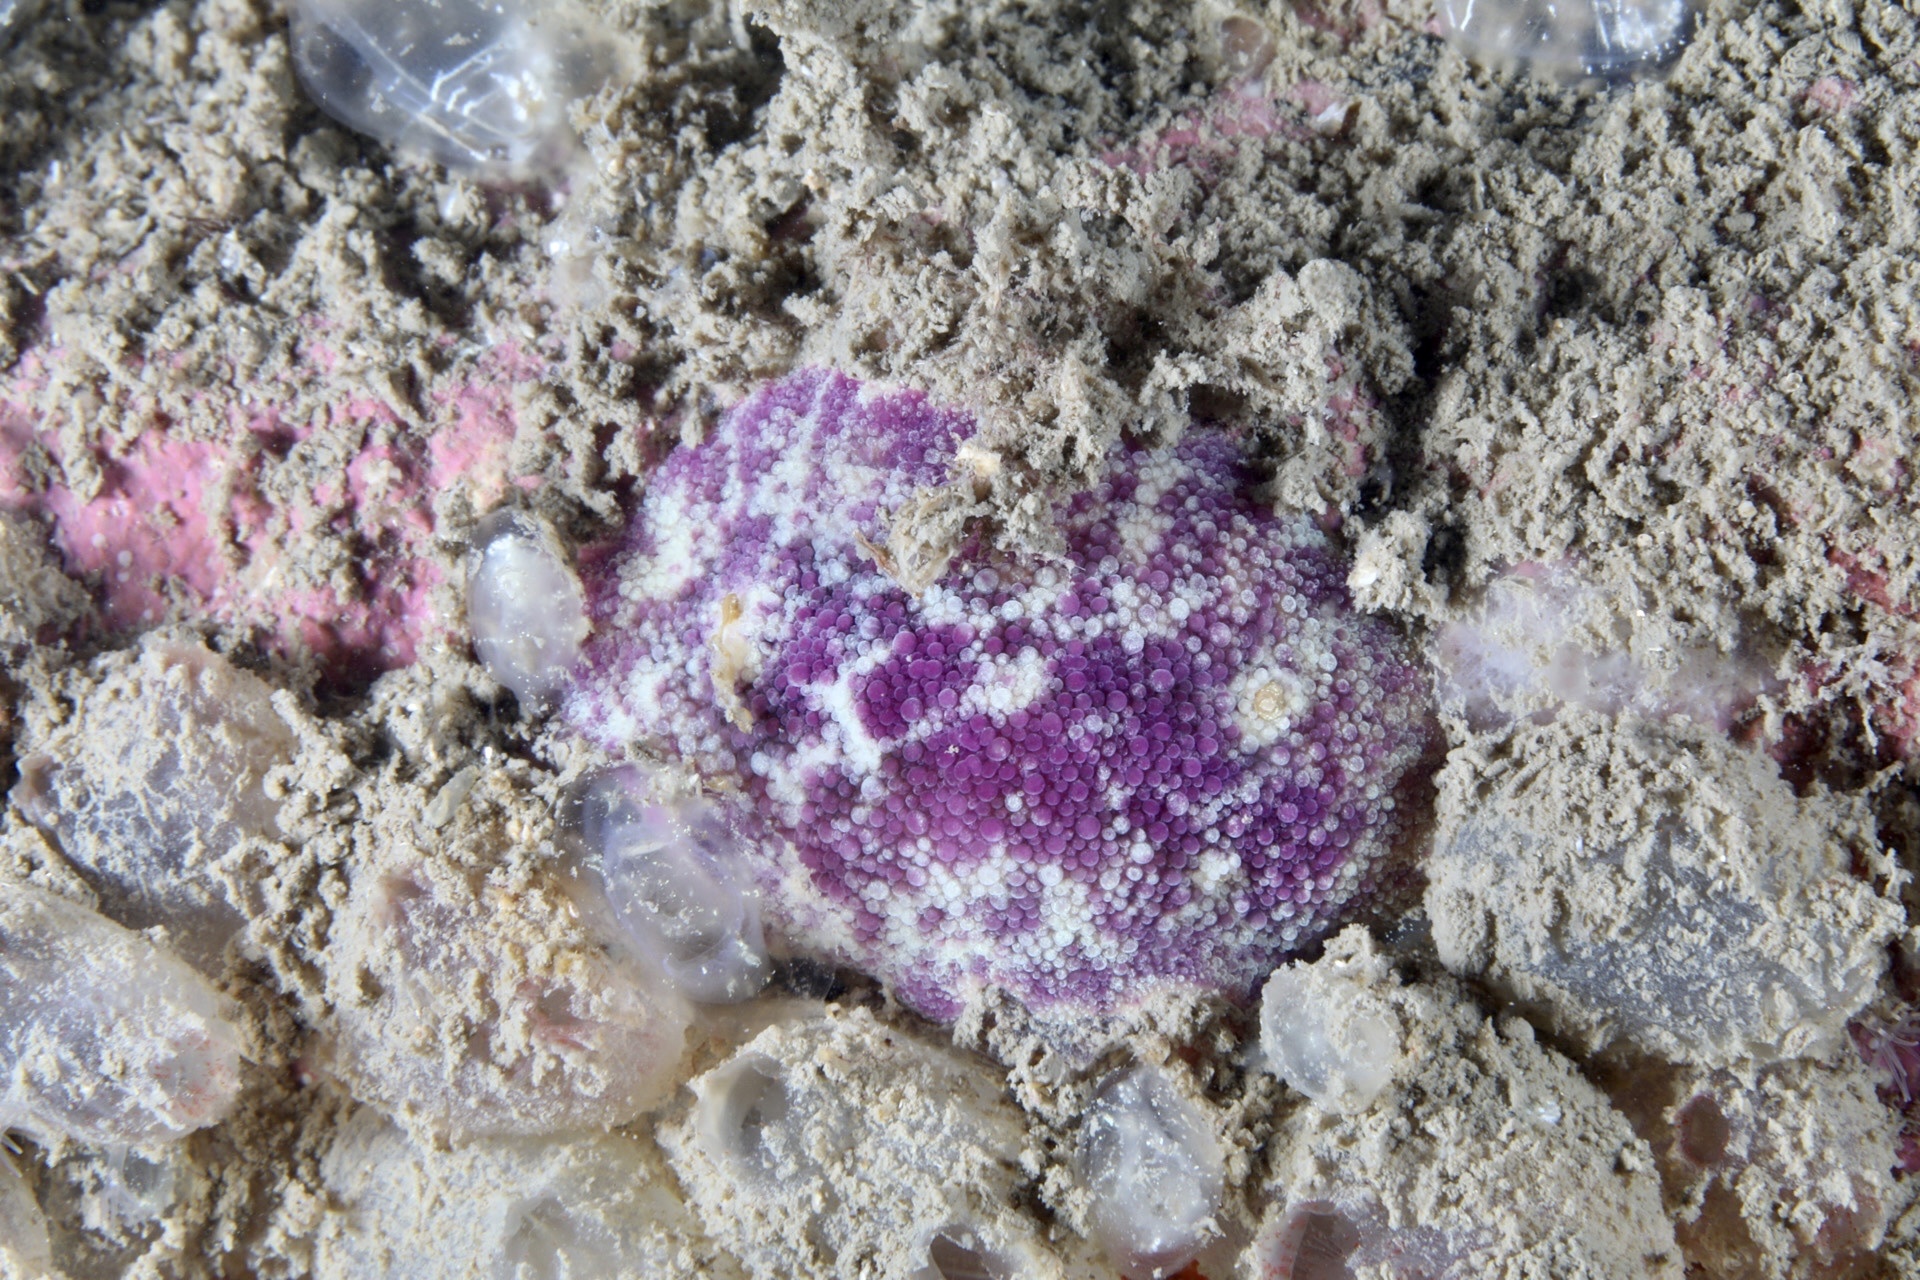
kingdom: Animalia
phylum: Mollusca
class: Gastropoda
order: Nudibranchia
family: Dorididae
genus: Doris
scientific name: Doris pseudoargus
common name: Sea lemon
